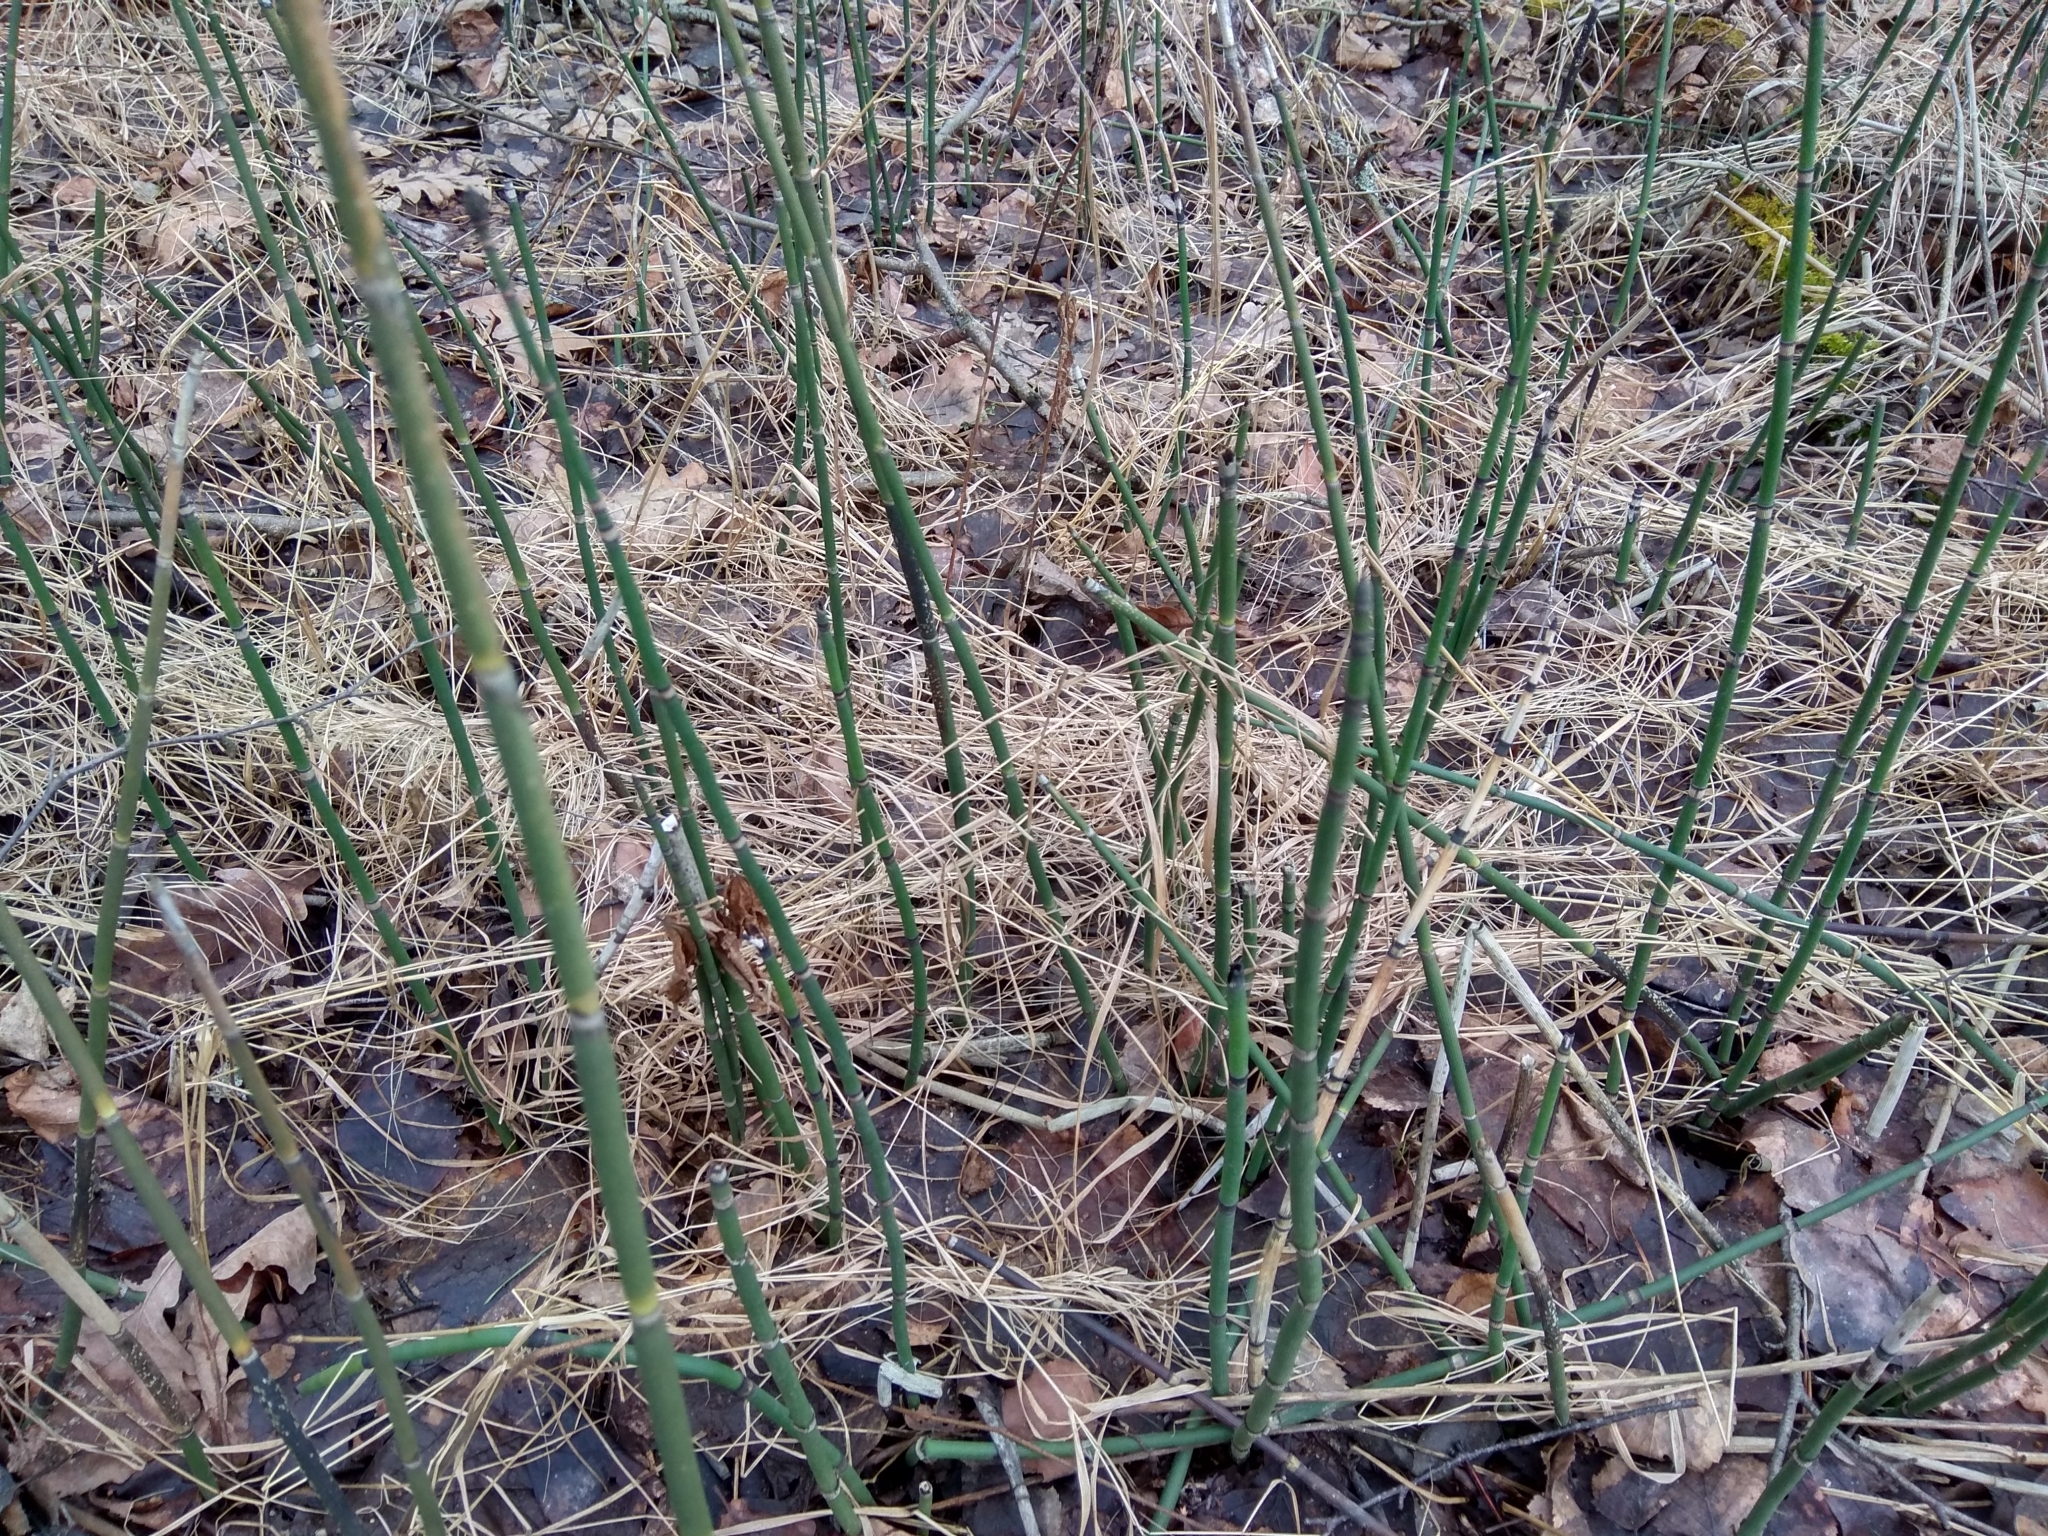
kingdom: Plantae
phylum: Tracheophyta
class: Polypodiopsida
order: Equisetales
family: Equisetaceae
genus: Equisetum
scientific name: Equisetum hyemale
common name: Rough horsetail
